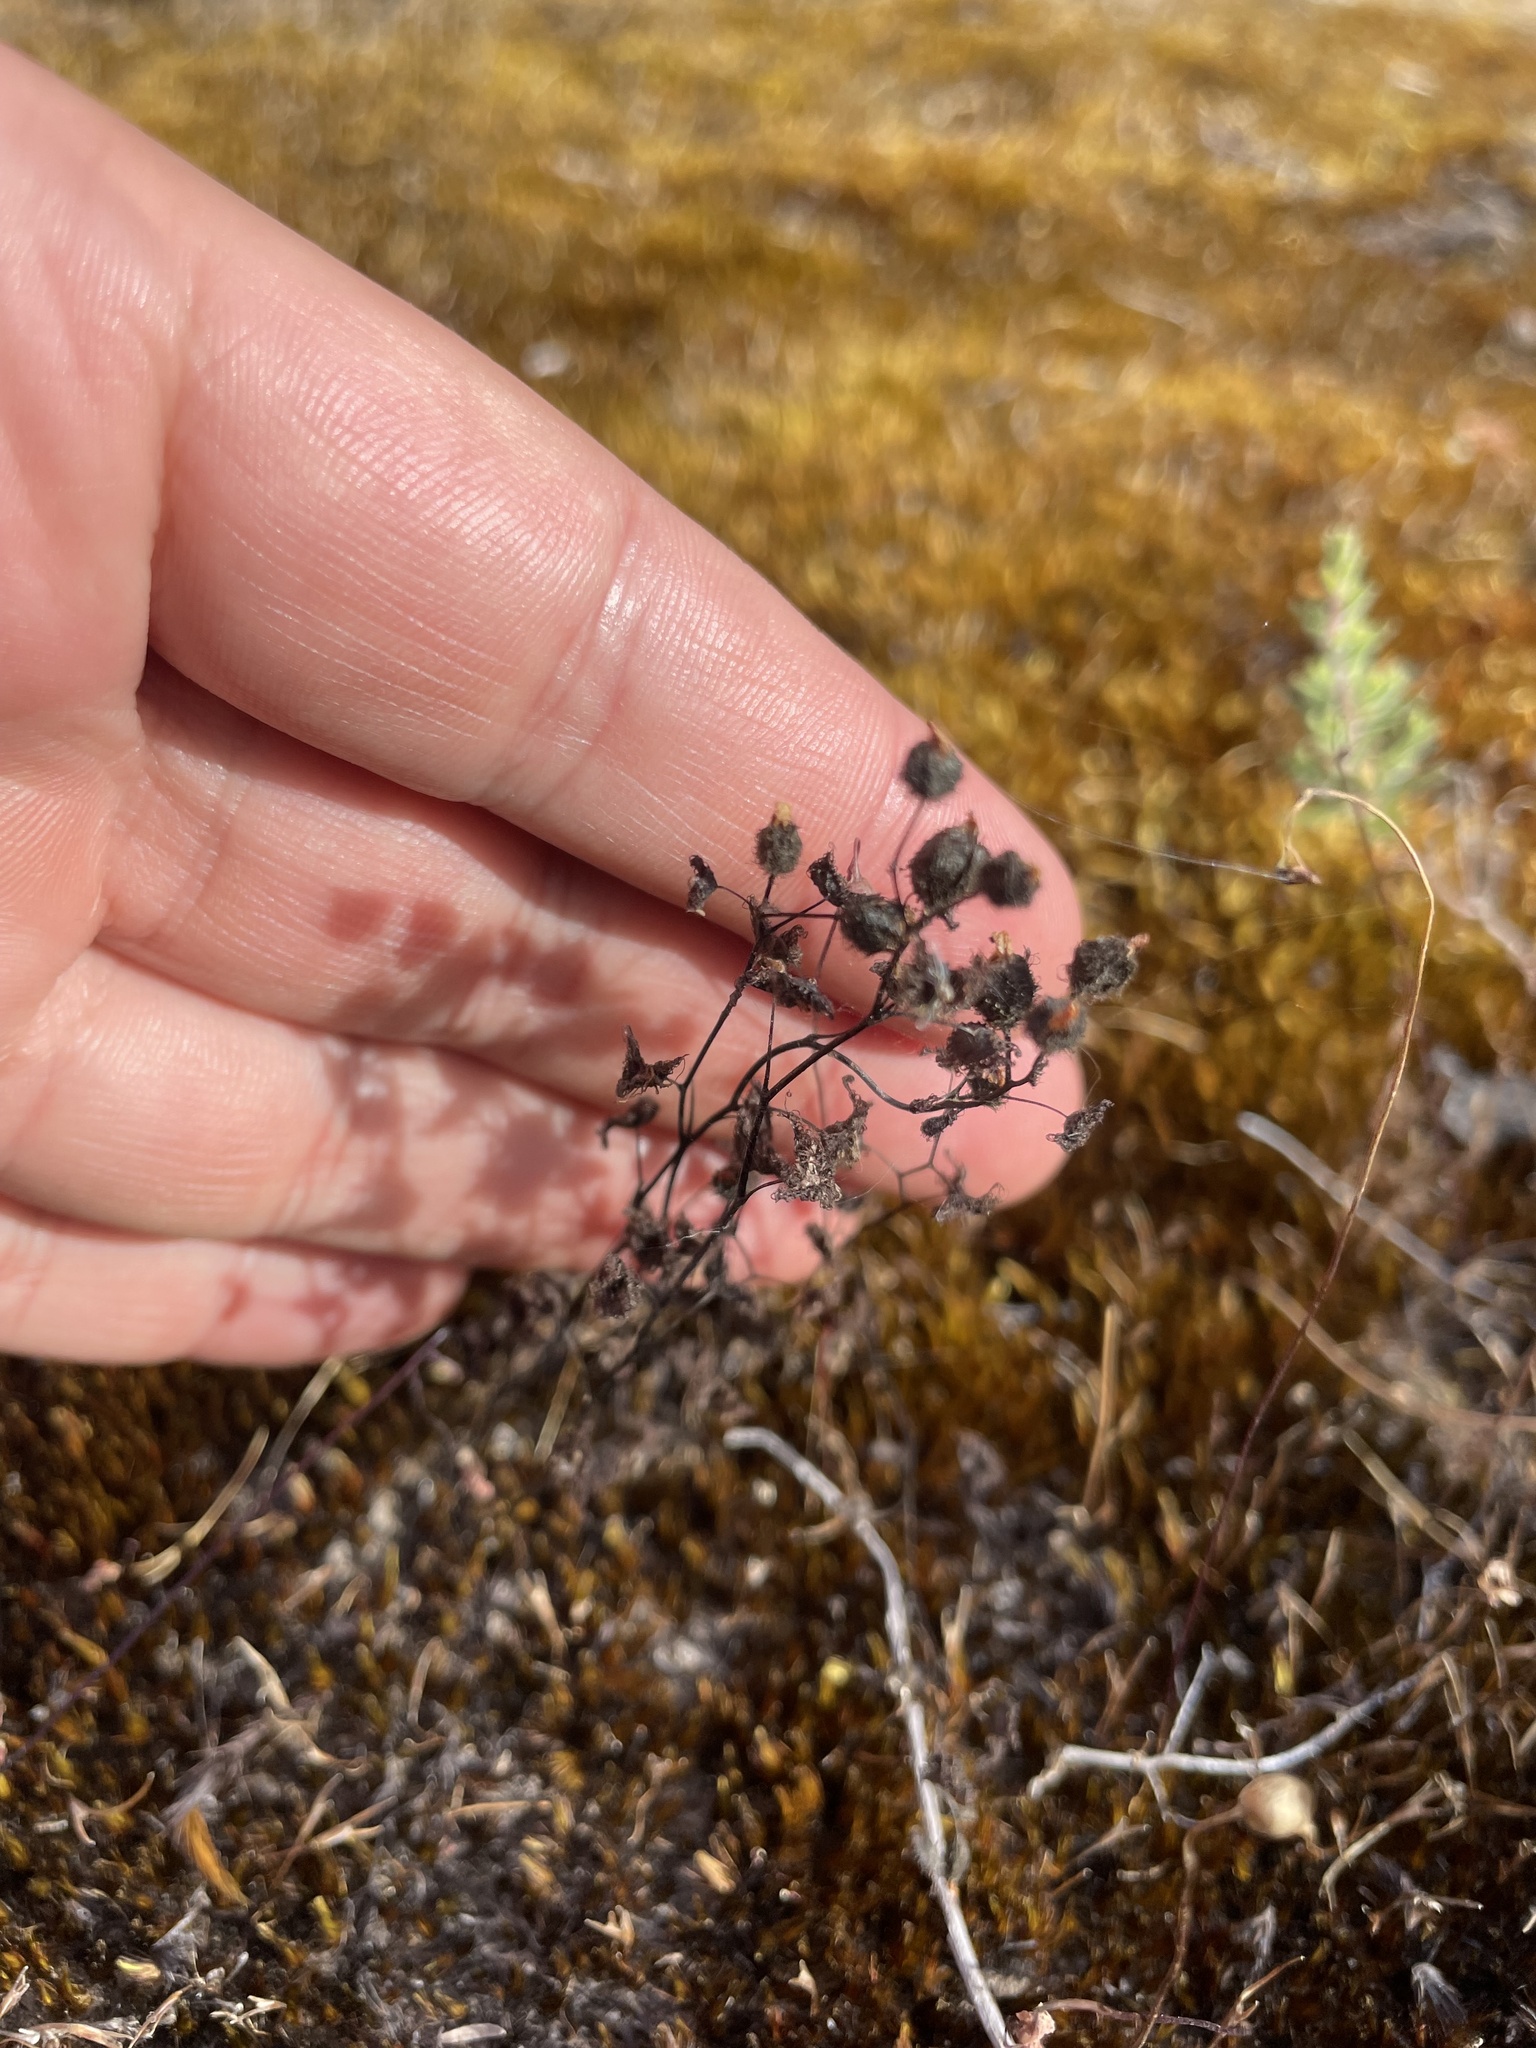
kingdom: Plantae
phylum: Tracheophyta
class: Magnoliopsida
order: Caryophyllales
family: Droseraceae
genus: Drosera
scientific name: Drosera gunniana
